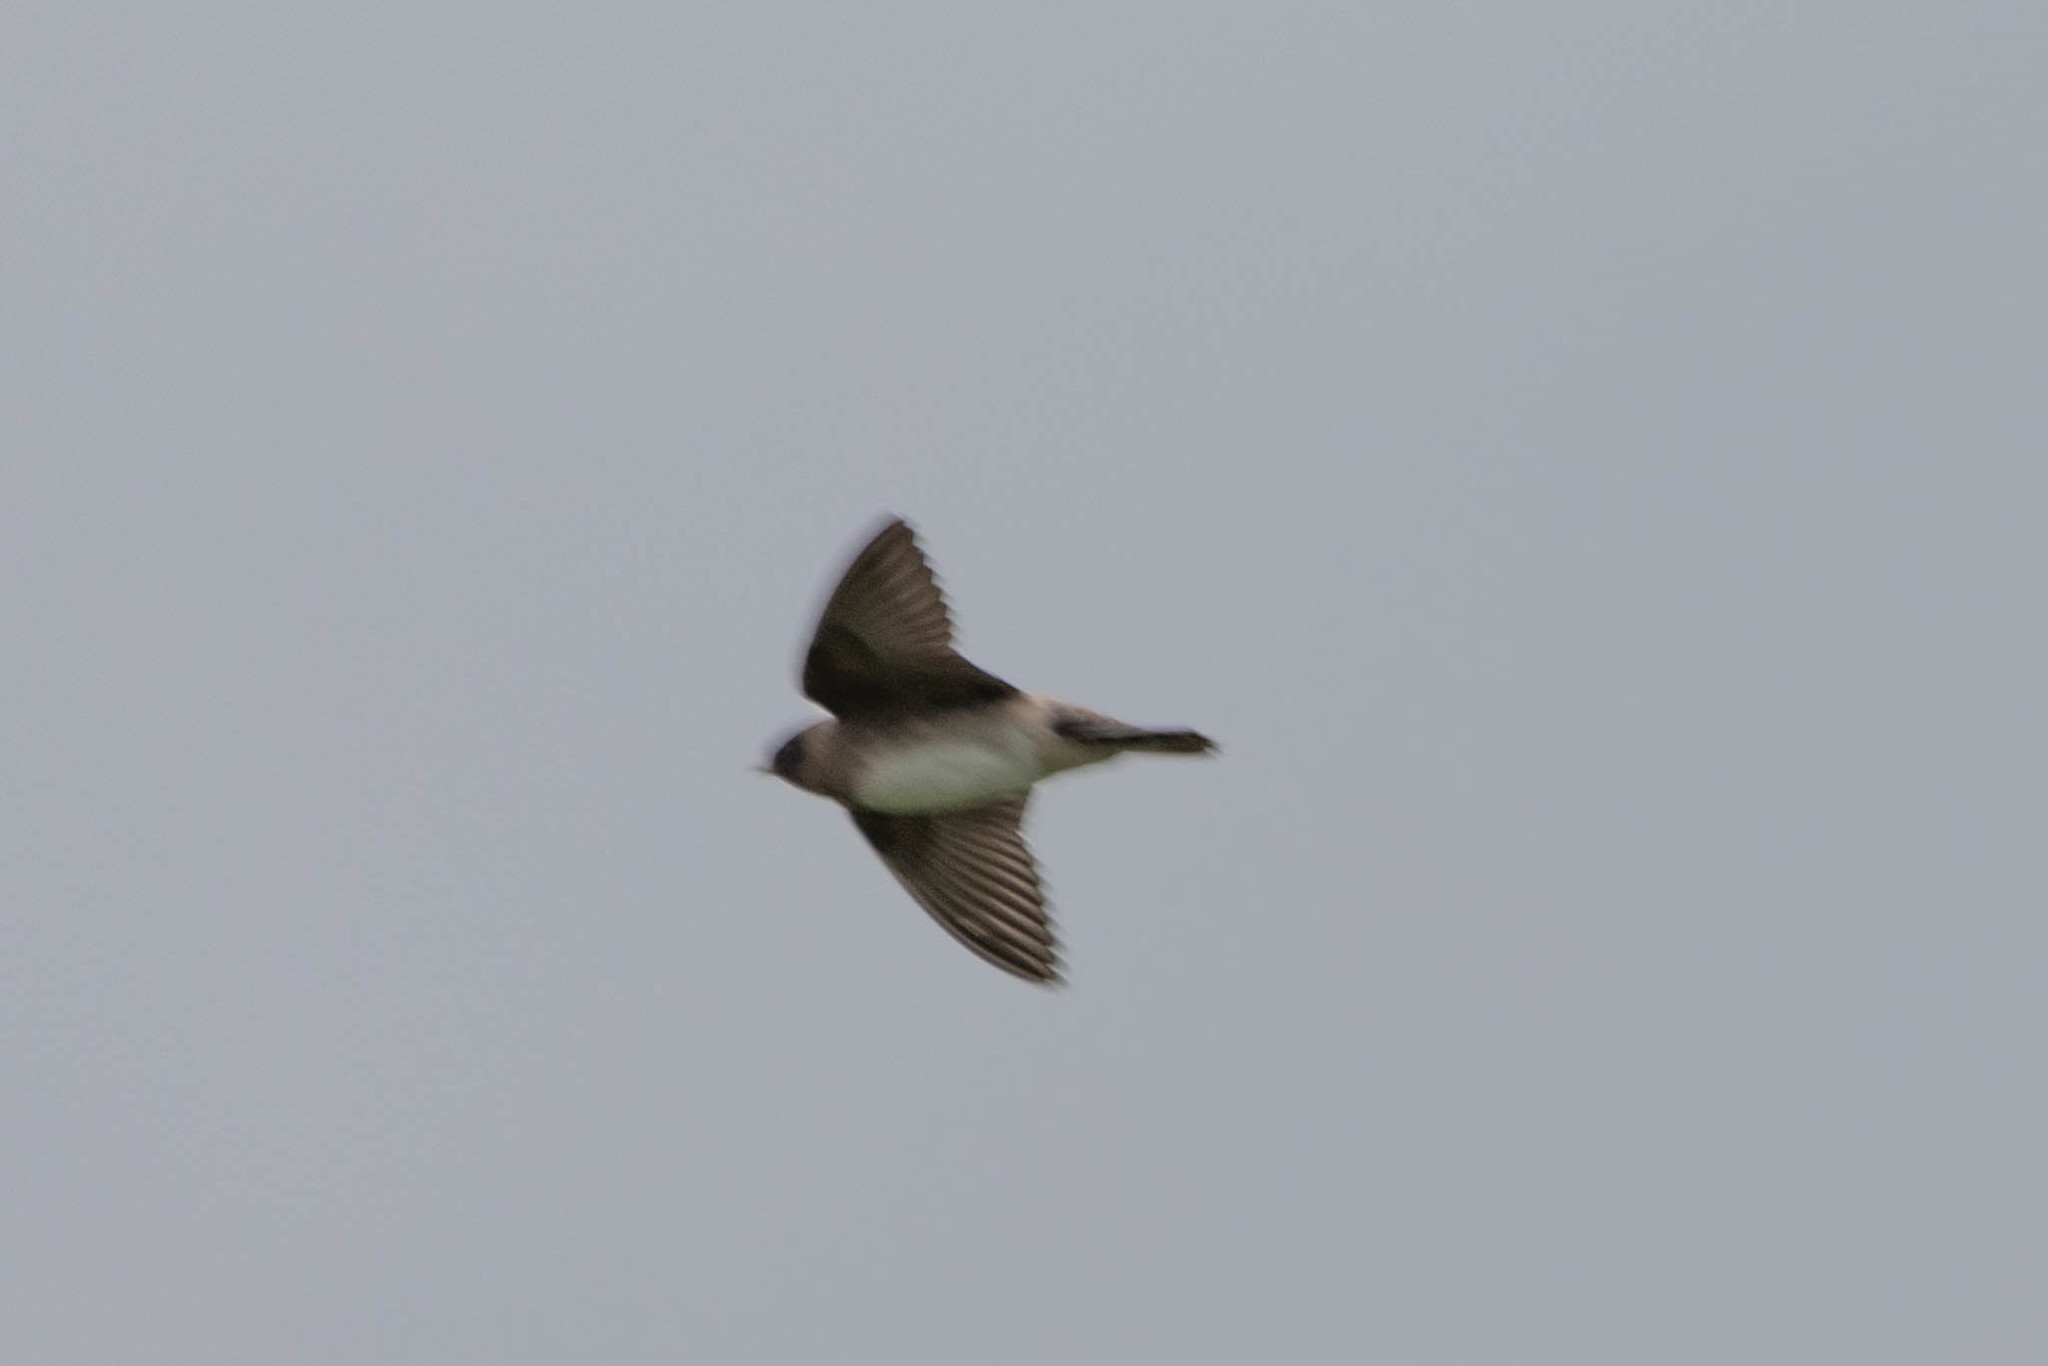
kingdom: Animalia
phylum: Chordata
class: Aves
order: Passeriformes
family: Hirundinidae
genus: Petrochelidon
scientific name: Petrochelidon pyrrhonota
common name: American cliff swallow
